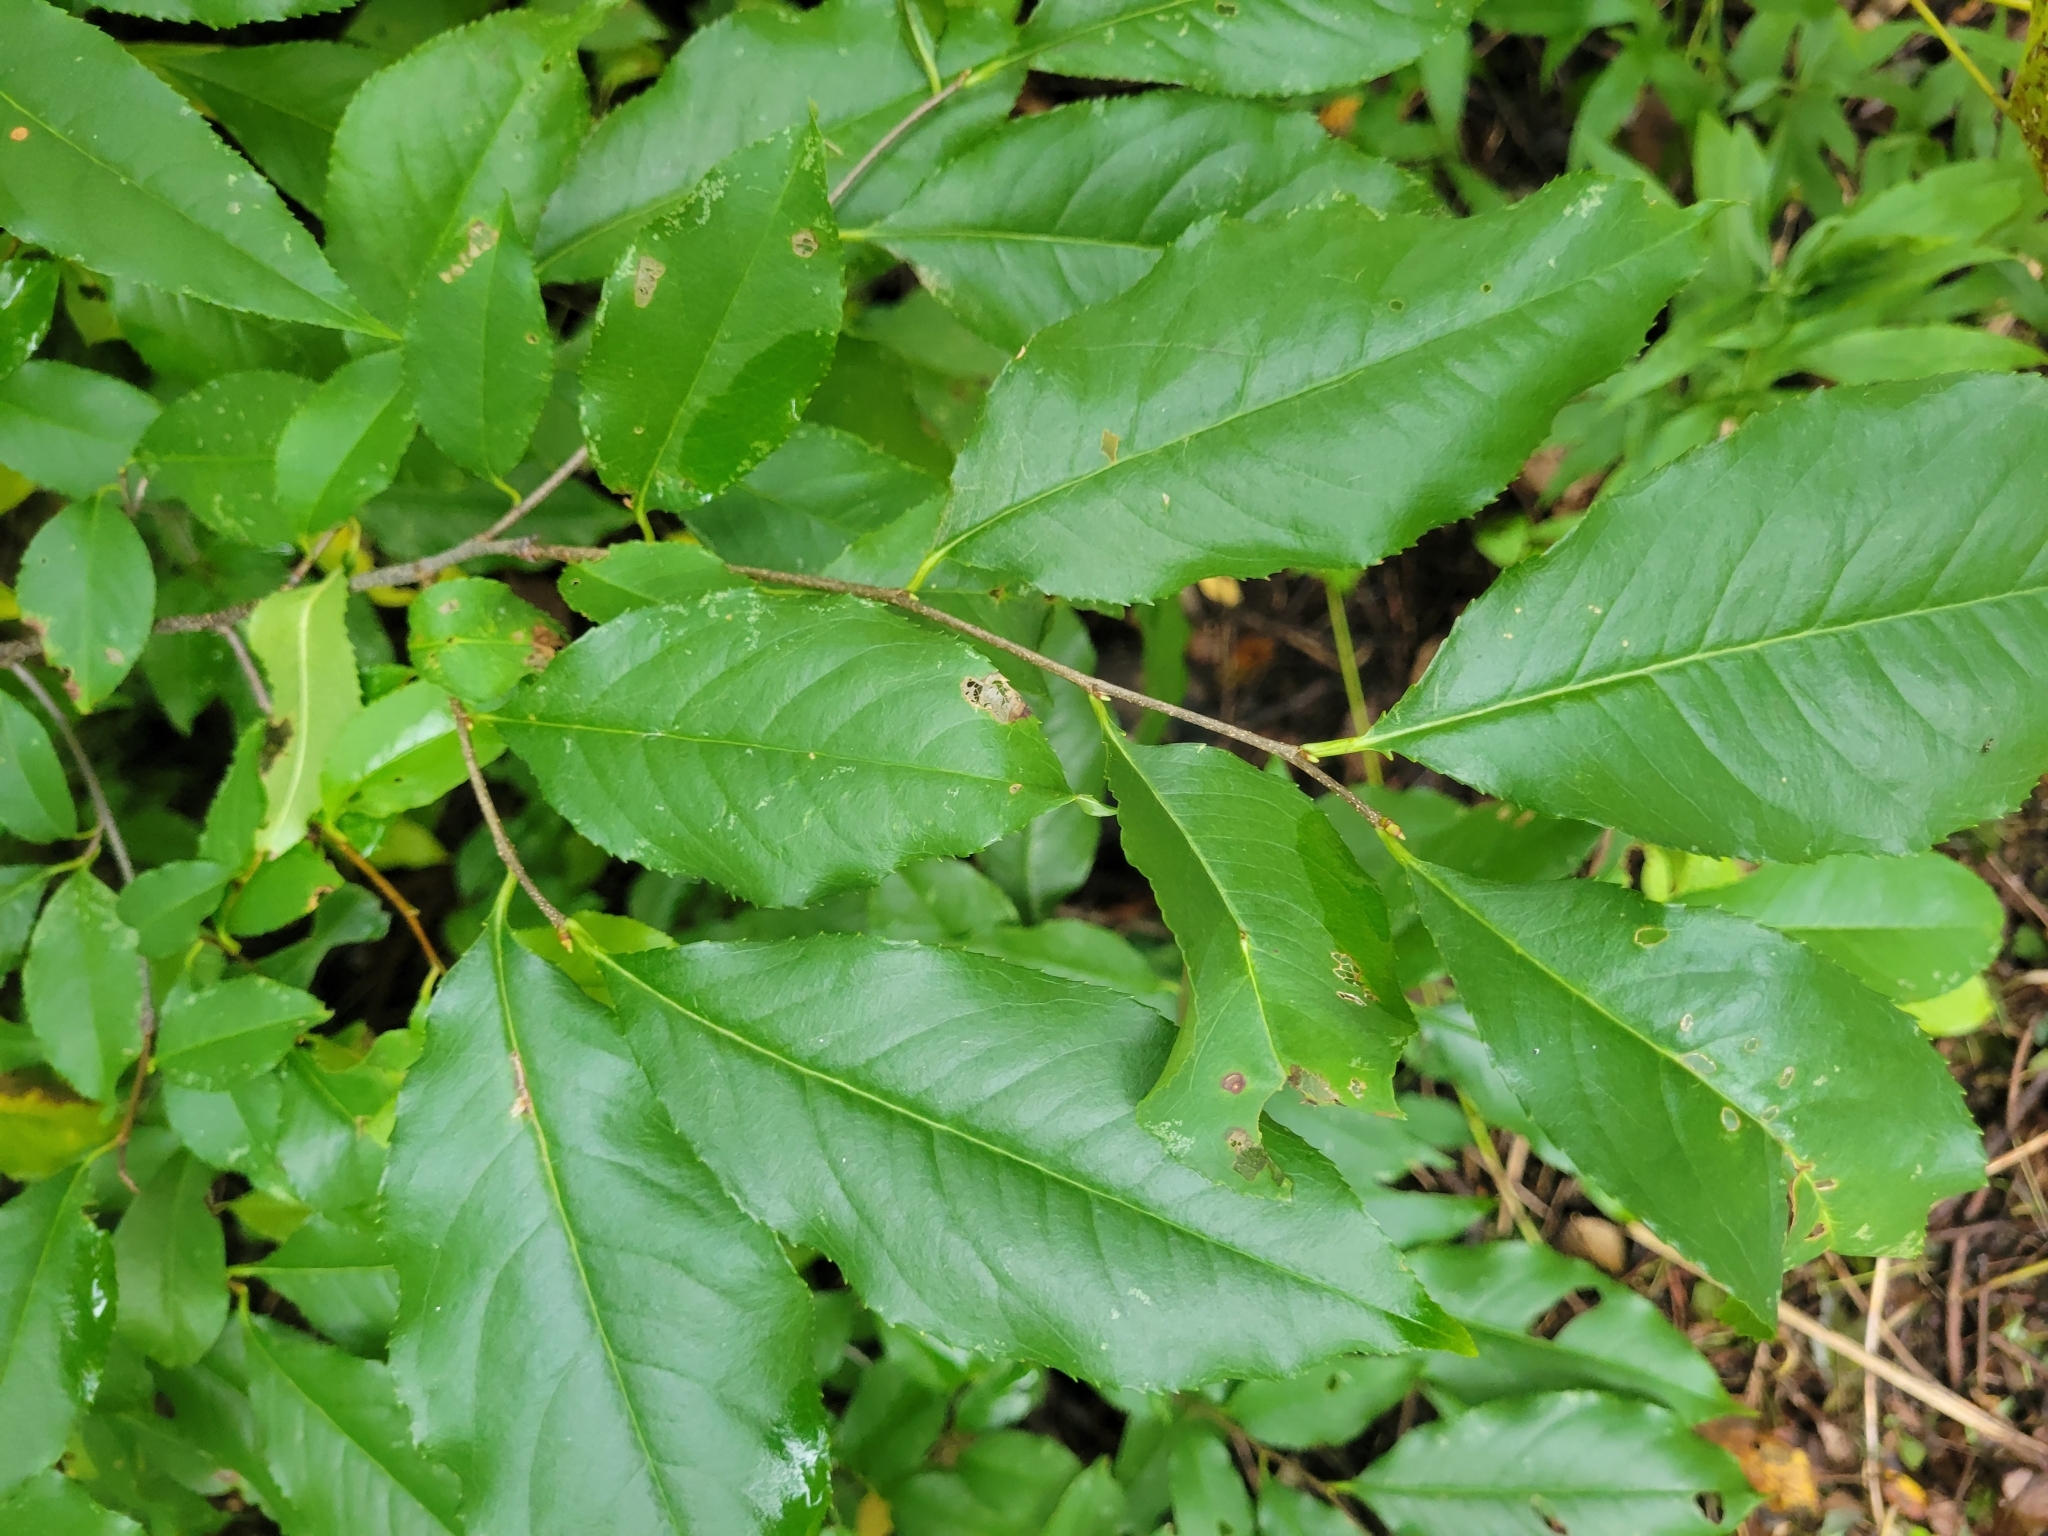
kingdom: Plantae
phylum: Tracheophyta
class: Magnoliopsida
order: Rosales
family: Rosaceae
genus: Prunus
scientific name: Prunus serotina
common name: Black cherry
